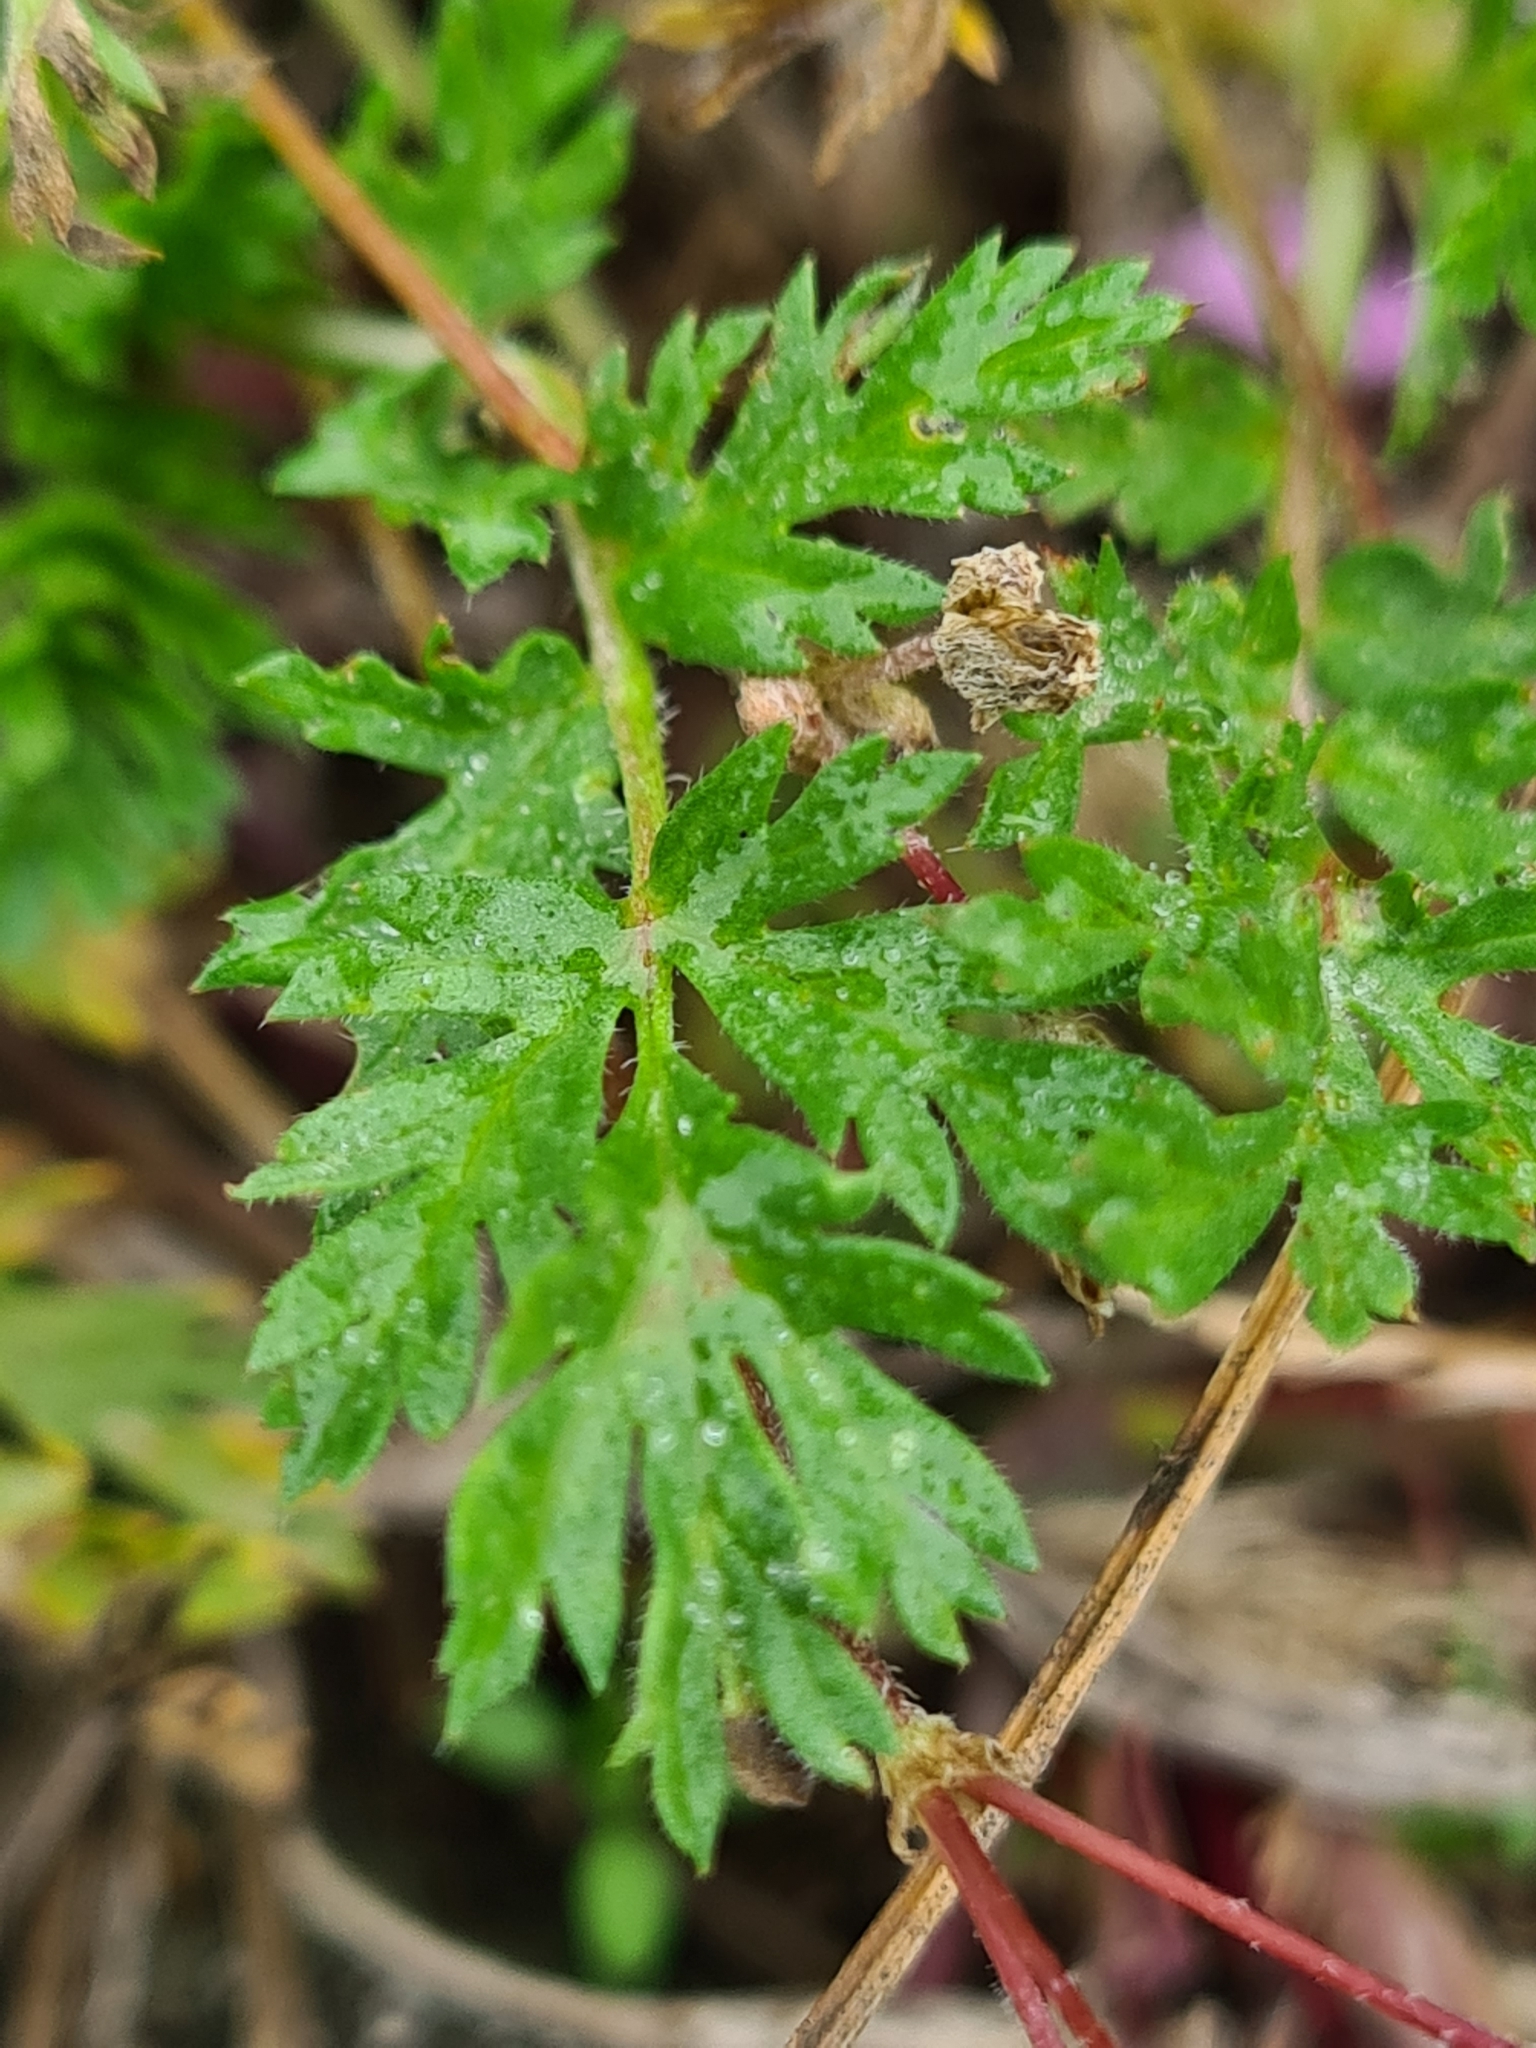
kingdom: Plantae
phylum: Tracheophyta
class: Magnoliopsida
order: Geraniales
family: Geraniaceae
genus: Erodium
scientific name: Erodium cicutarium
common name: Common stork's-bill
